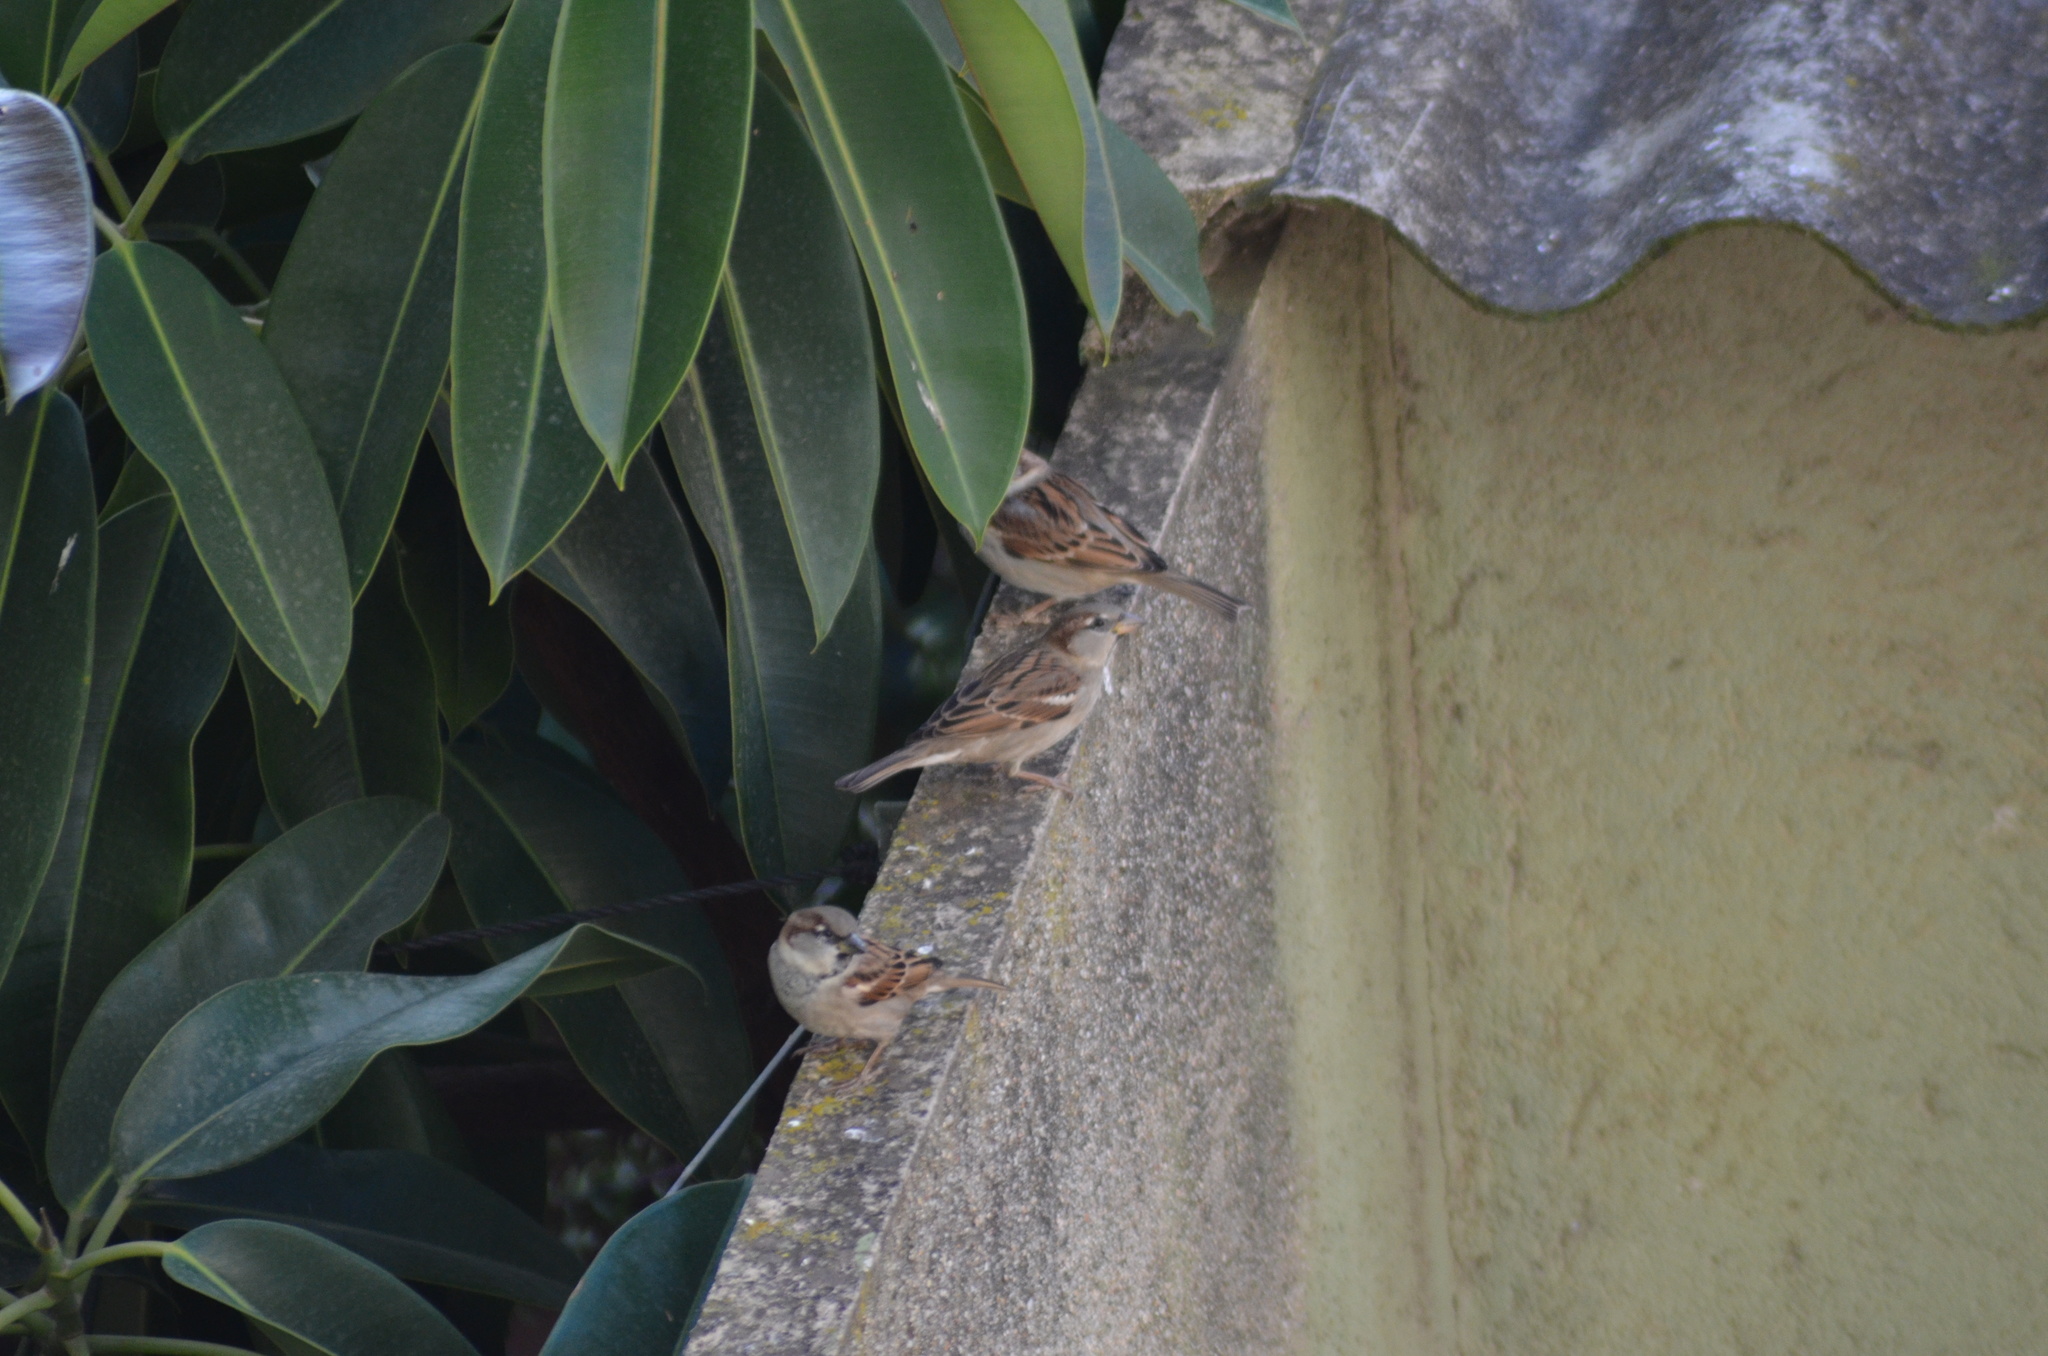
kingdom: Animalia
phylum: Chordata
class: Aves
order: Passeriformes
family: Passeridae
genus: Passer
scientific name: Passer domesticus
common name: House sparrow
